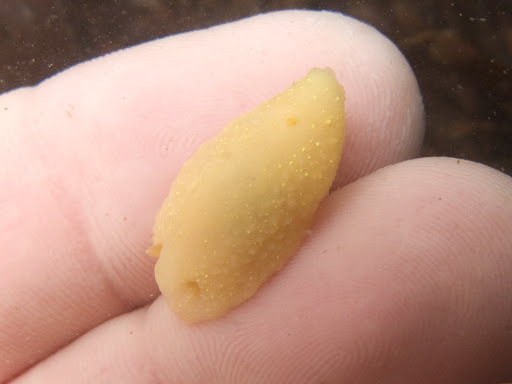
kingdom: Animalia
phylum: Mollusca
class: Gastropoda
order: Nudibranchia
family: Cadlinidae
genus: Cadlina
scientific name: Cadlina modesta
